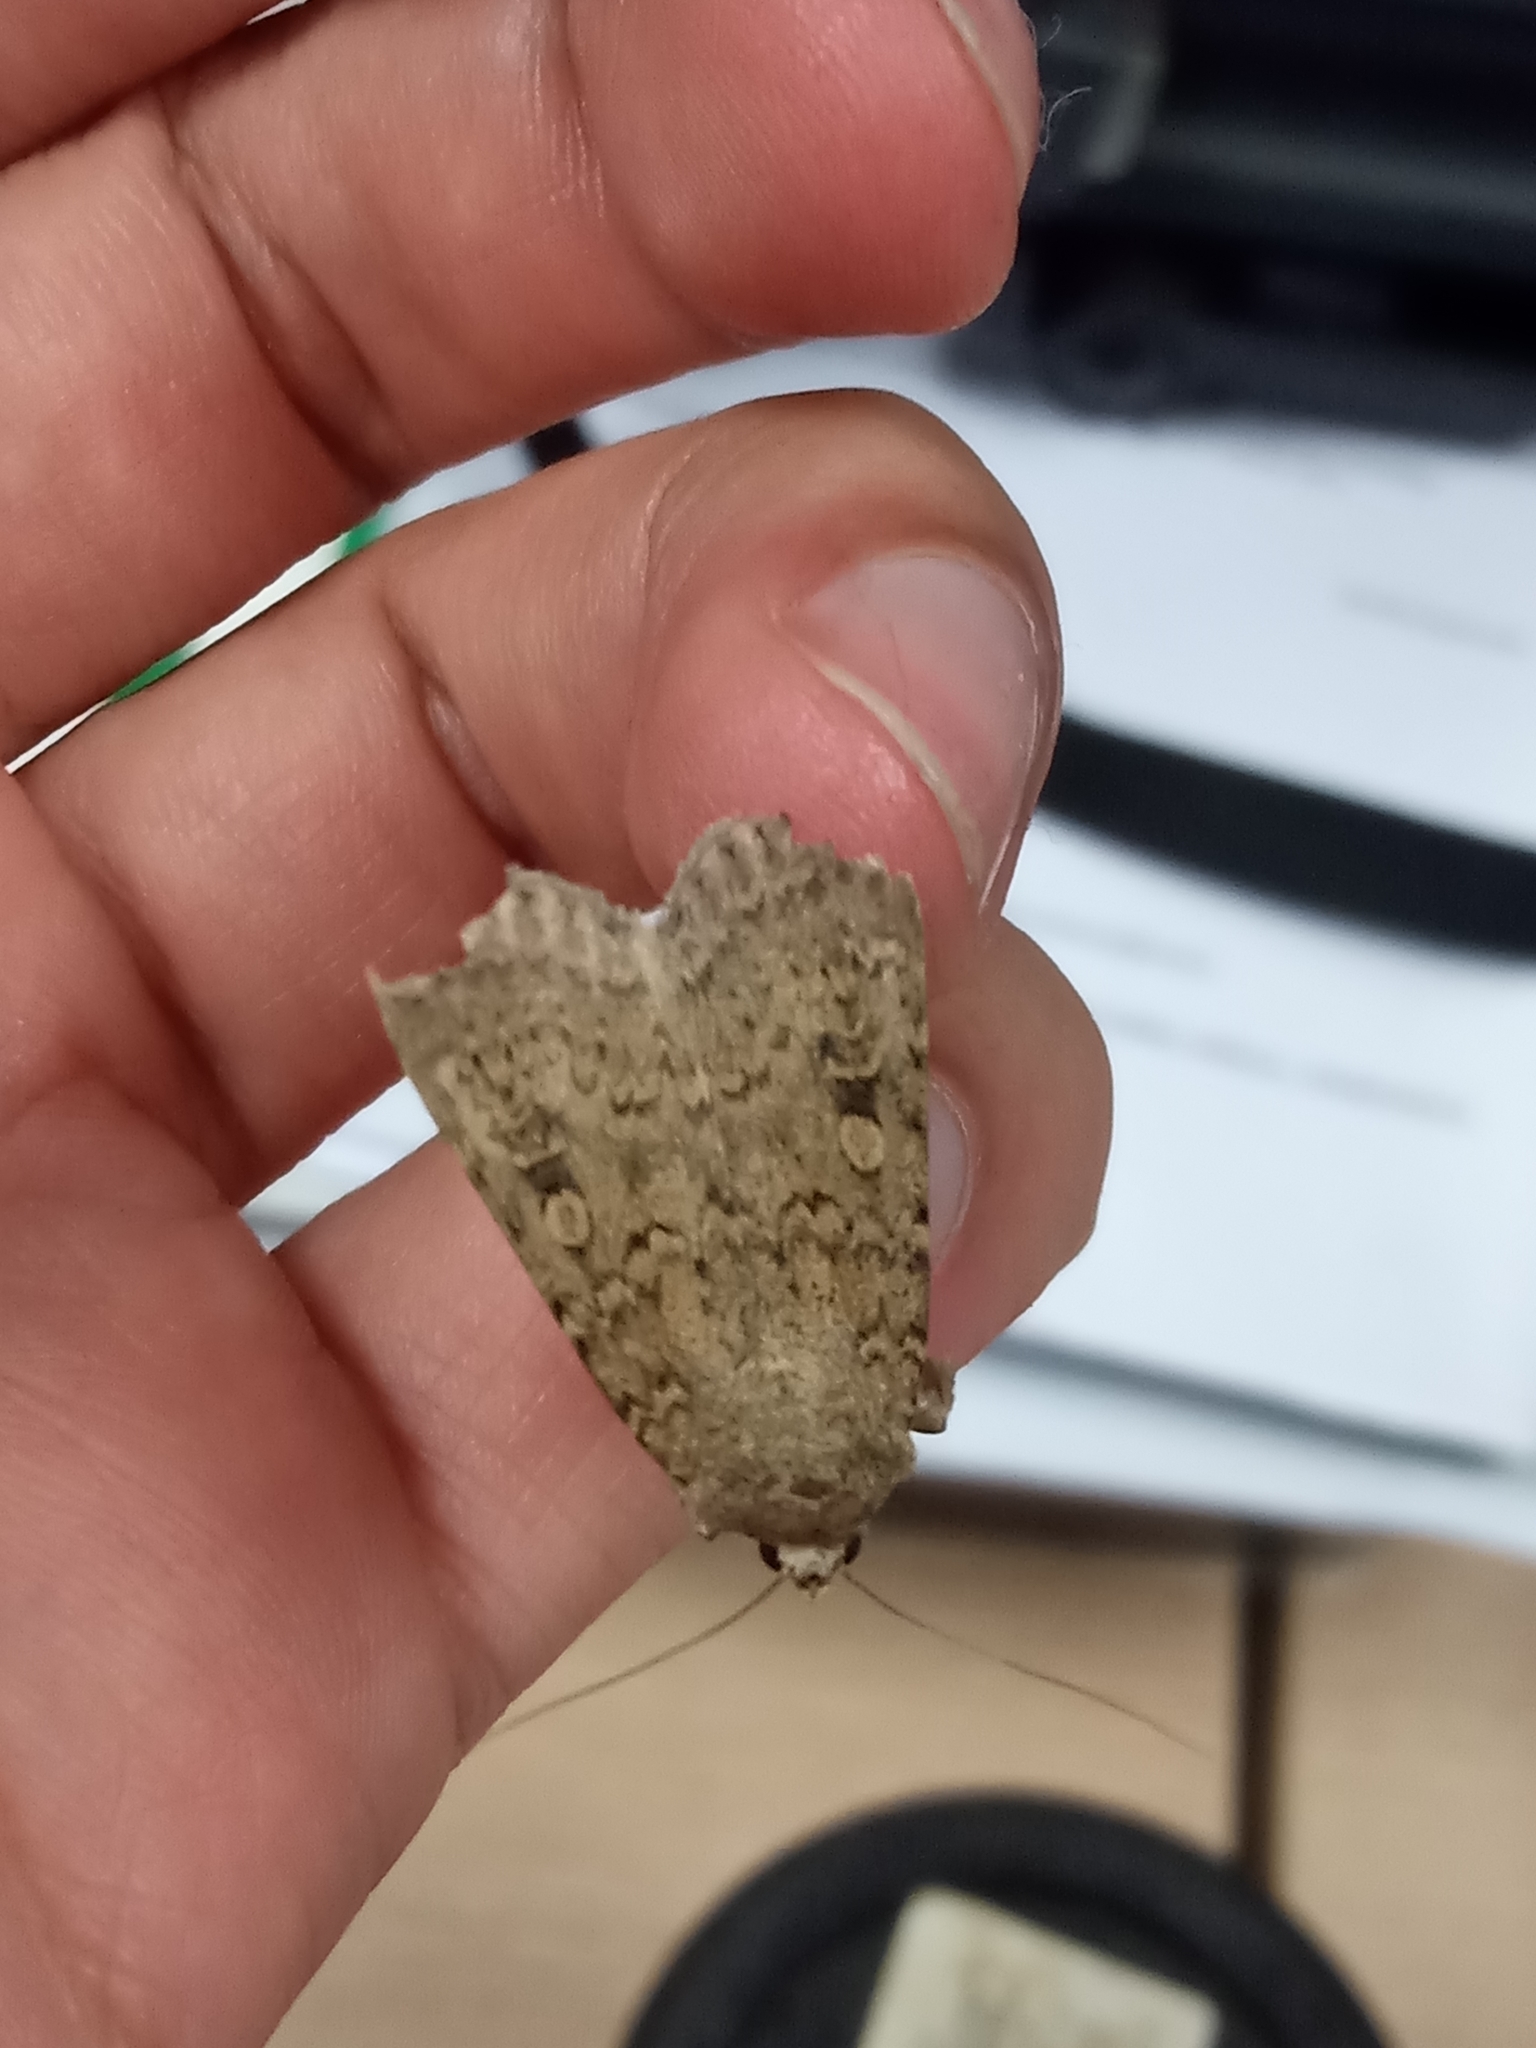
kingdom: Animalia
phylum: Arthropoda
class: Insecta
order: Lepidoptera
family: Noctuidae
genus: Rhyacia
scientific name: Rhyacia simulans
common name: Dotted rustic
